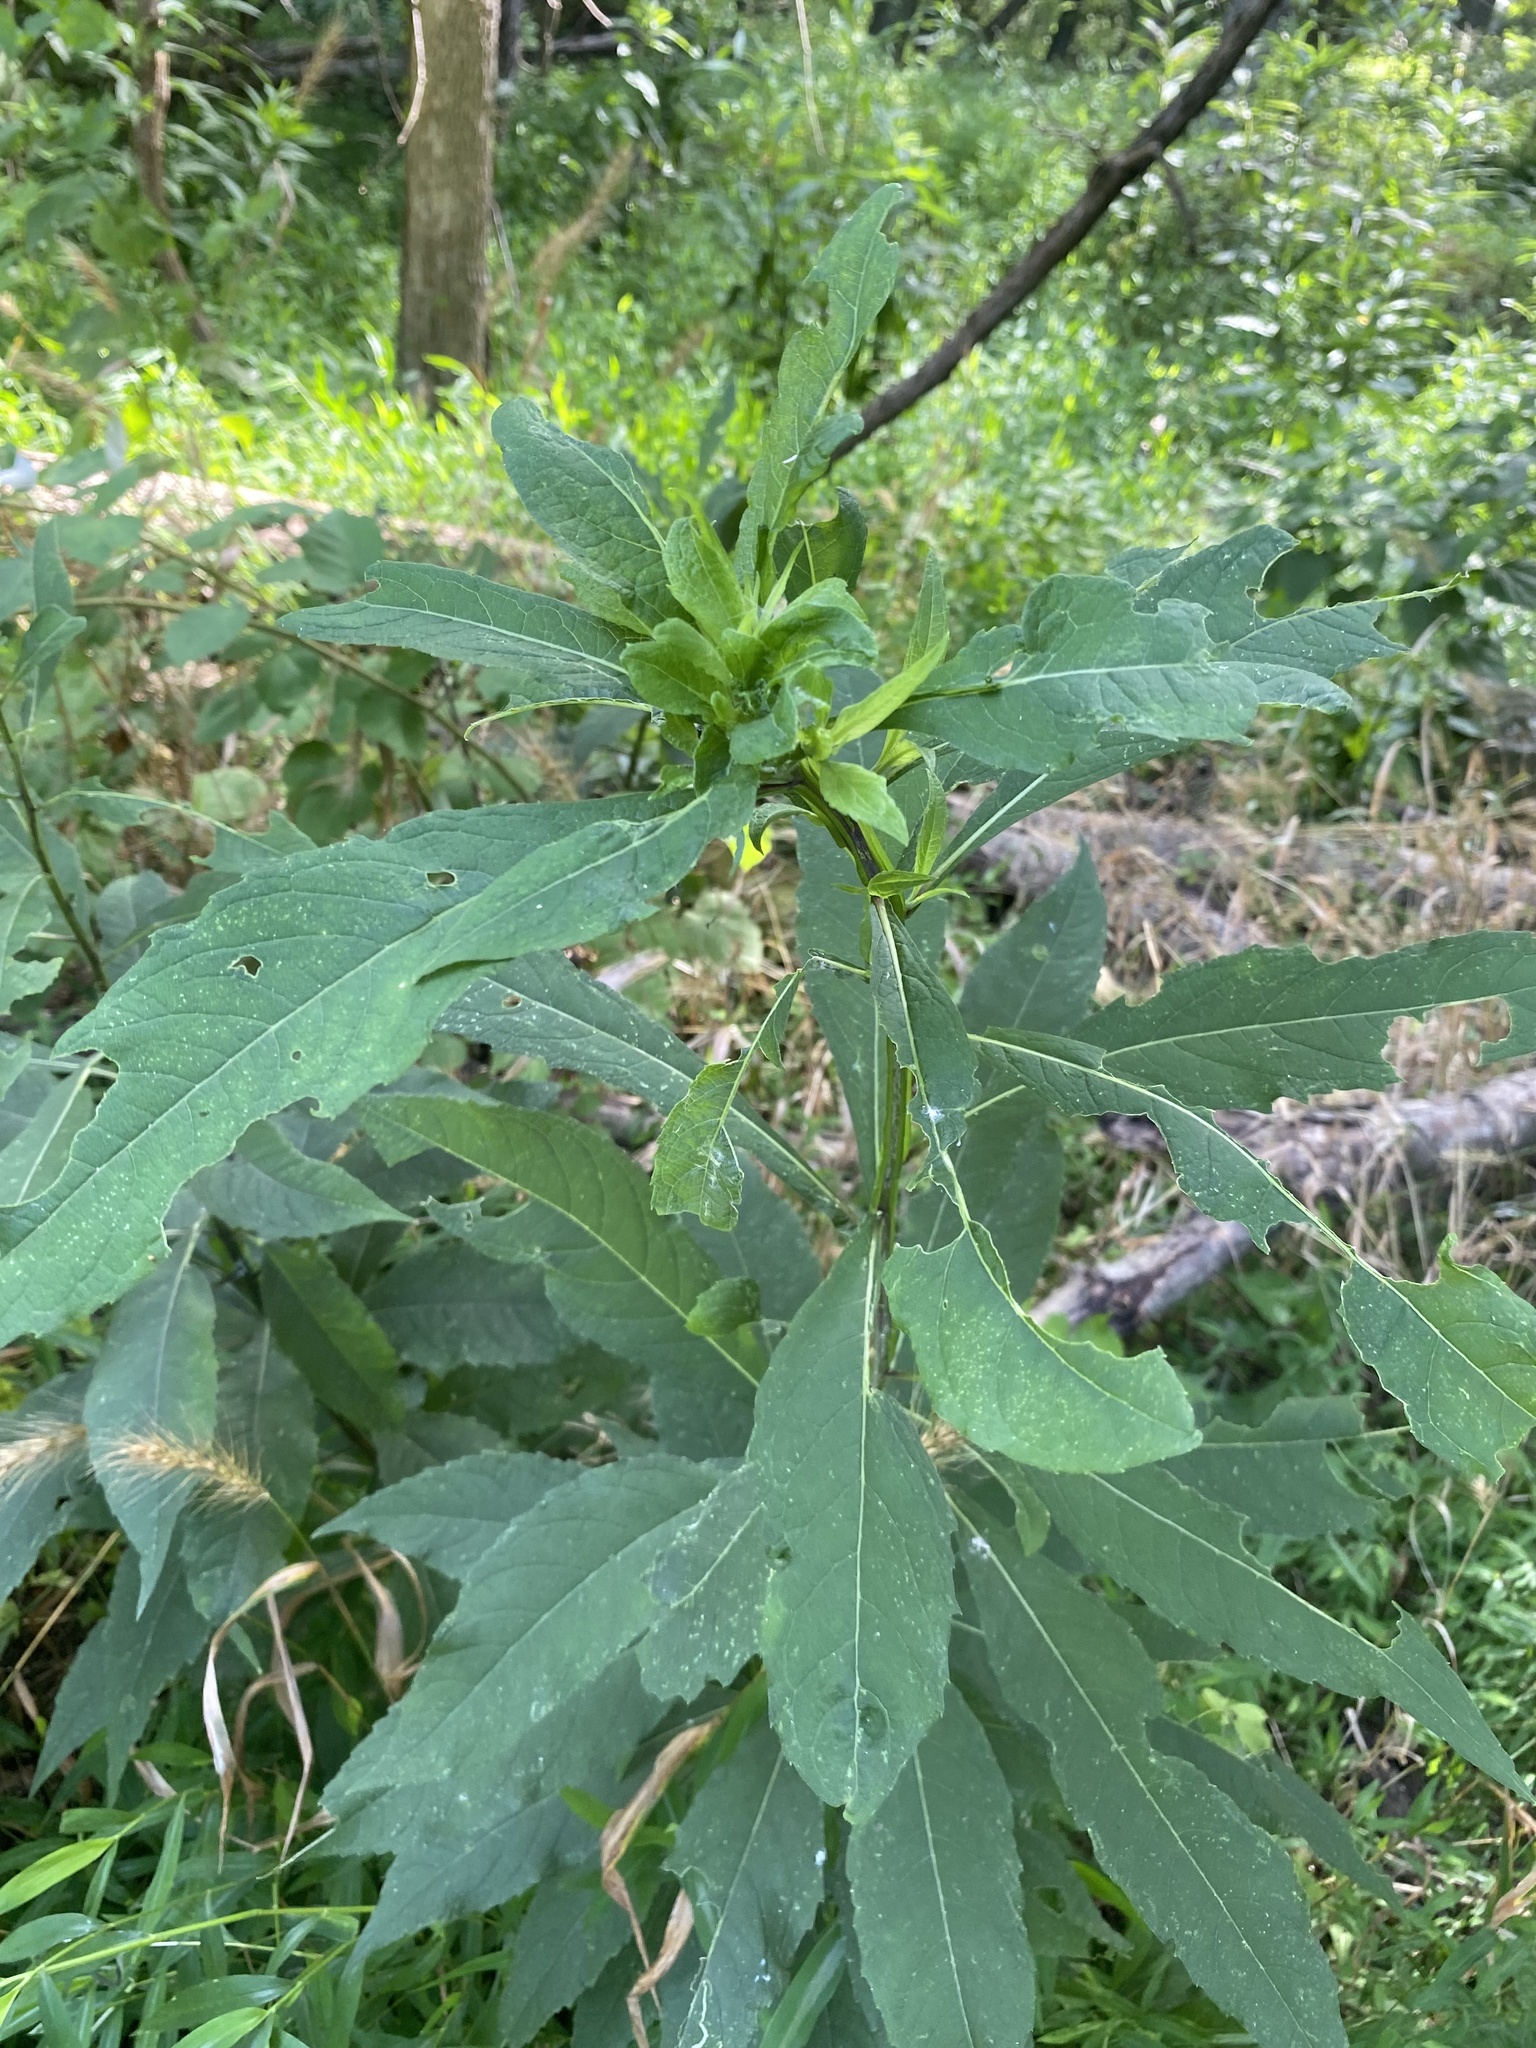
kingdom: Plantae
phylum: Tracheophyta
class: Magnoliopsida
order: Asterales
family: Asteraceae
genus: Verbesina
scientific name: Verbesina alternifolia
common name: Wingstem
